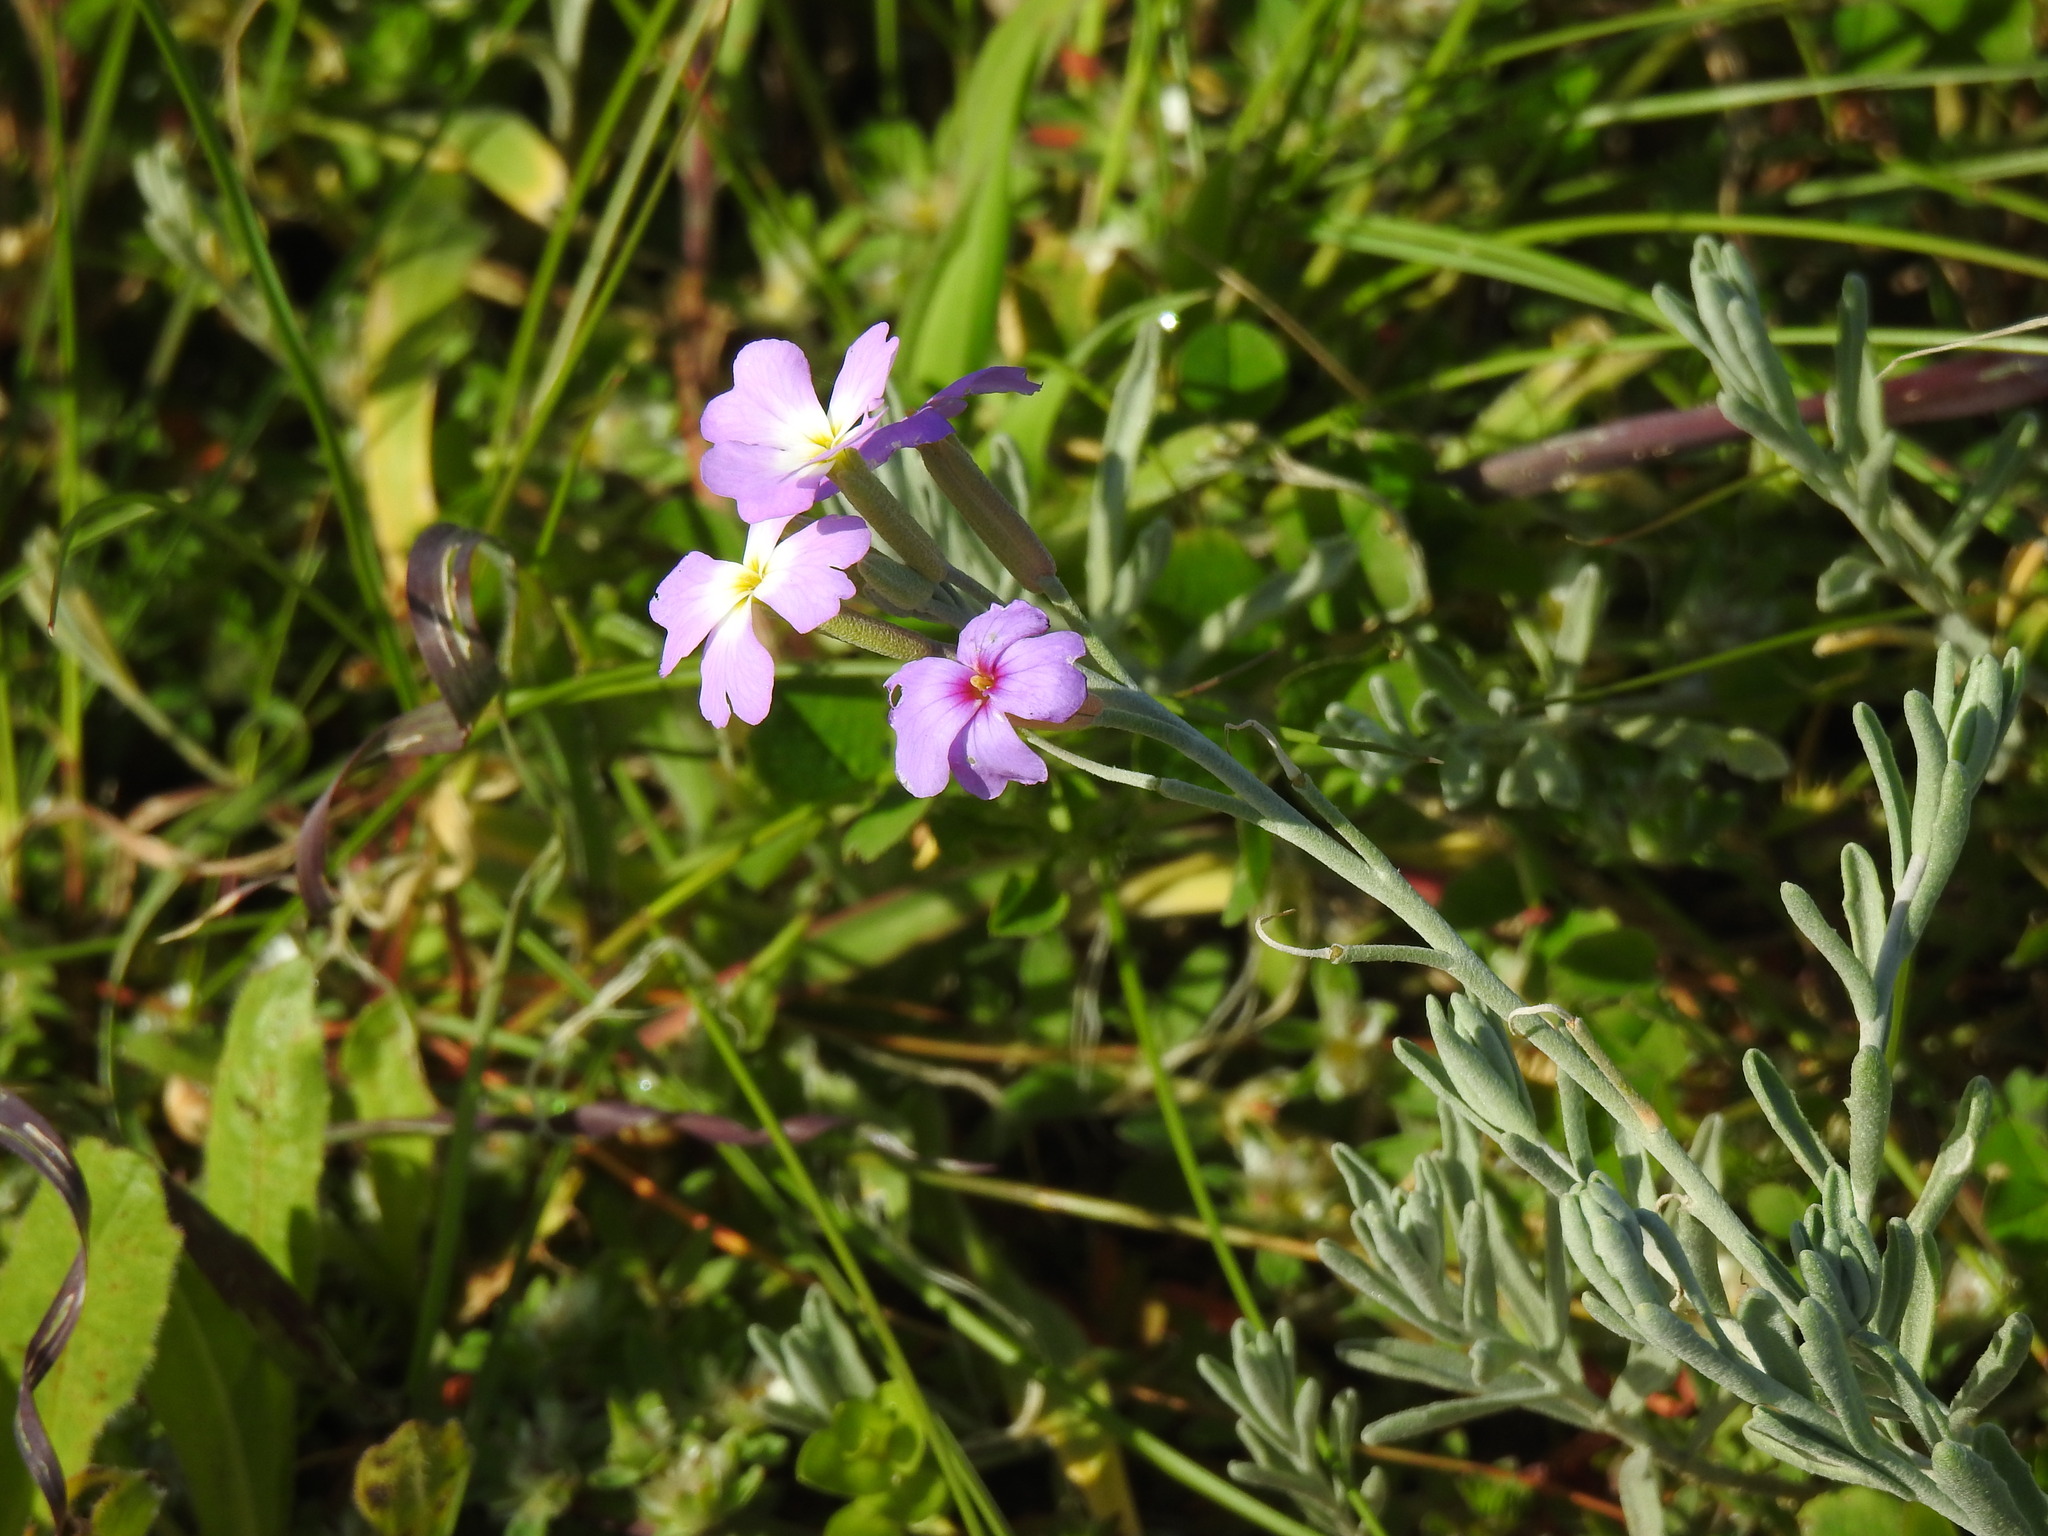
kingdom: Plantae
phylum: Tracheophyta
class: Magnoliopsida
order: Brassicales
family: Brassicaceae
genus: Marcuskochia
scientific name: Marcuskochia littorea
